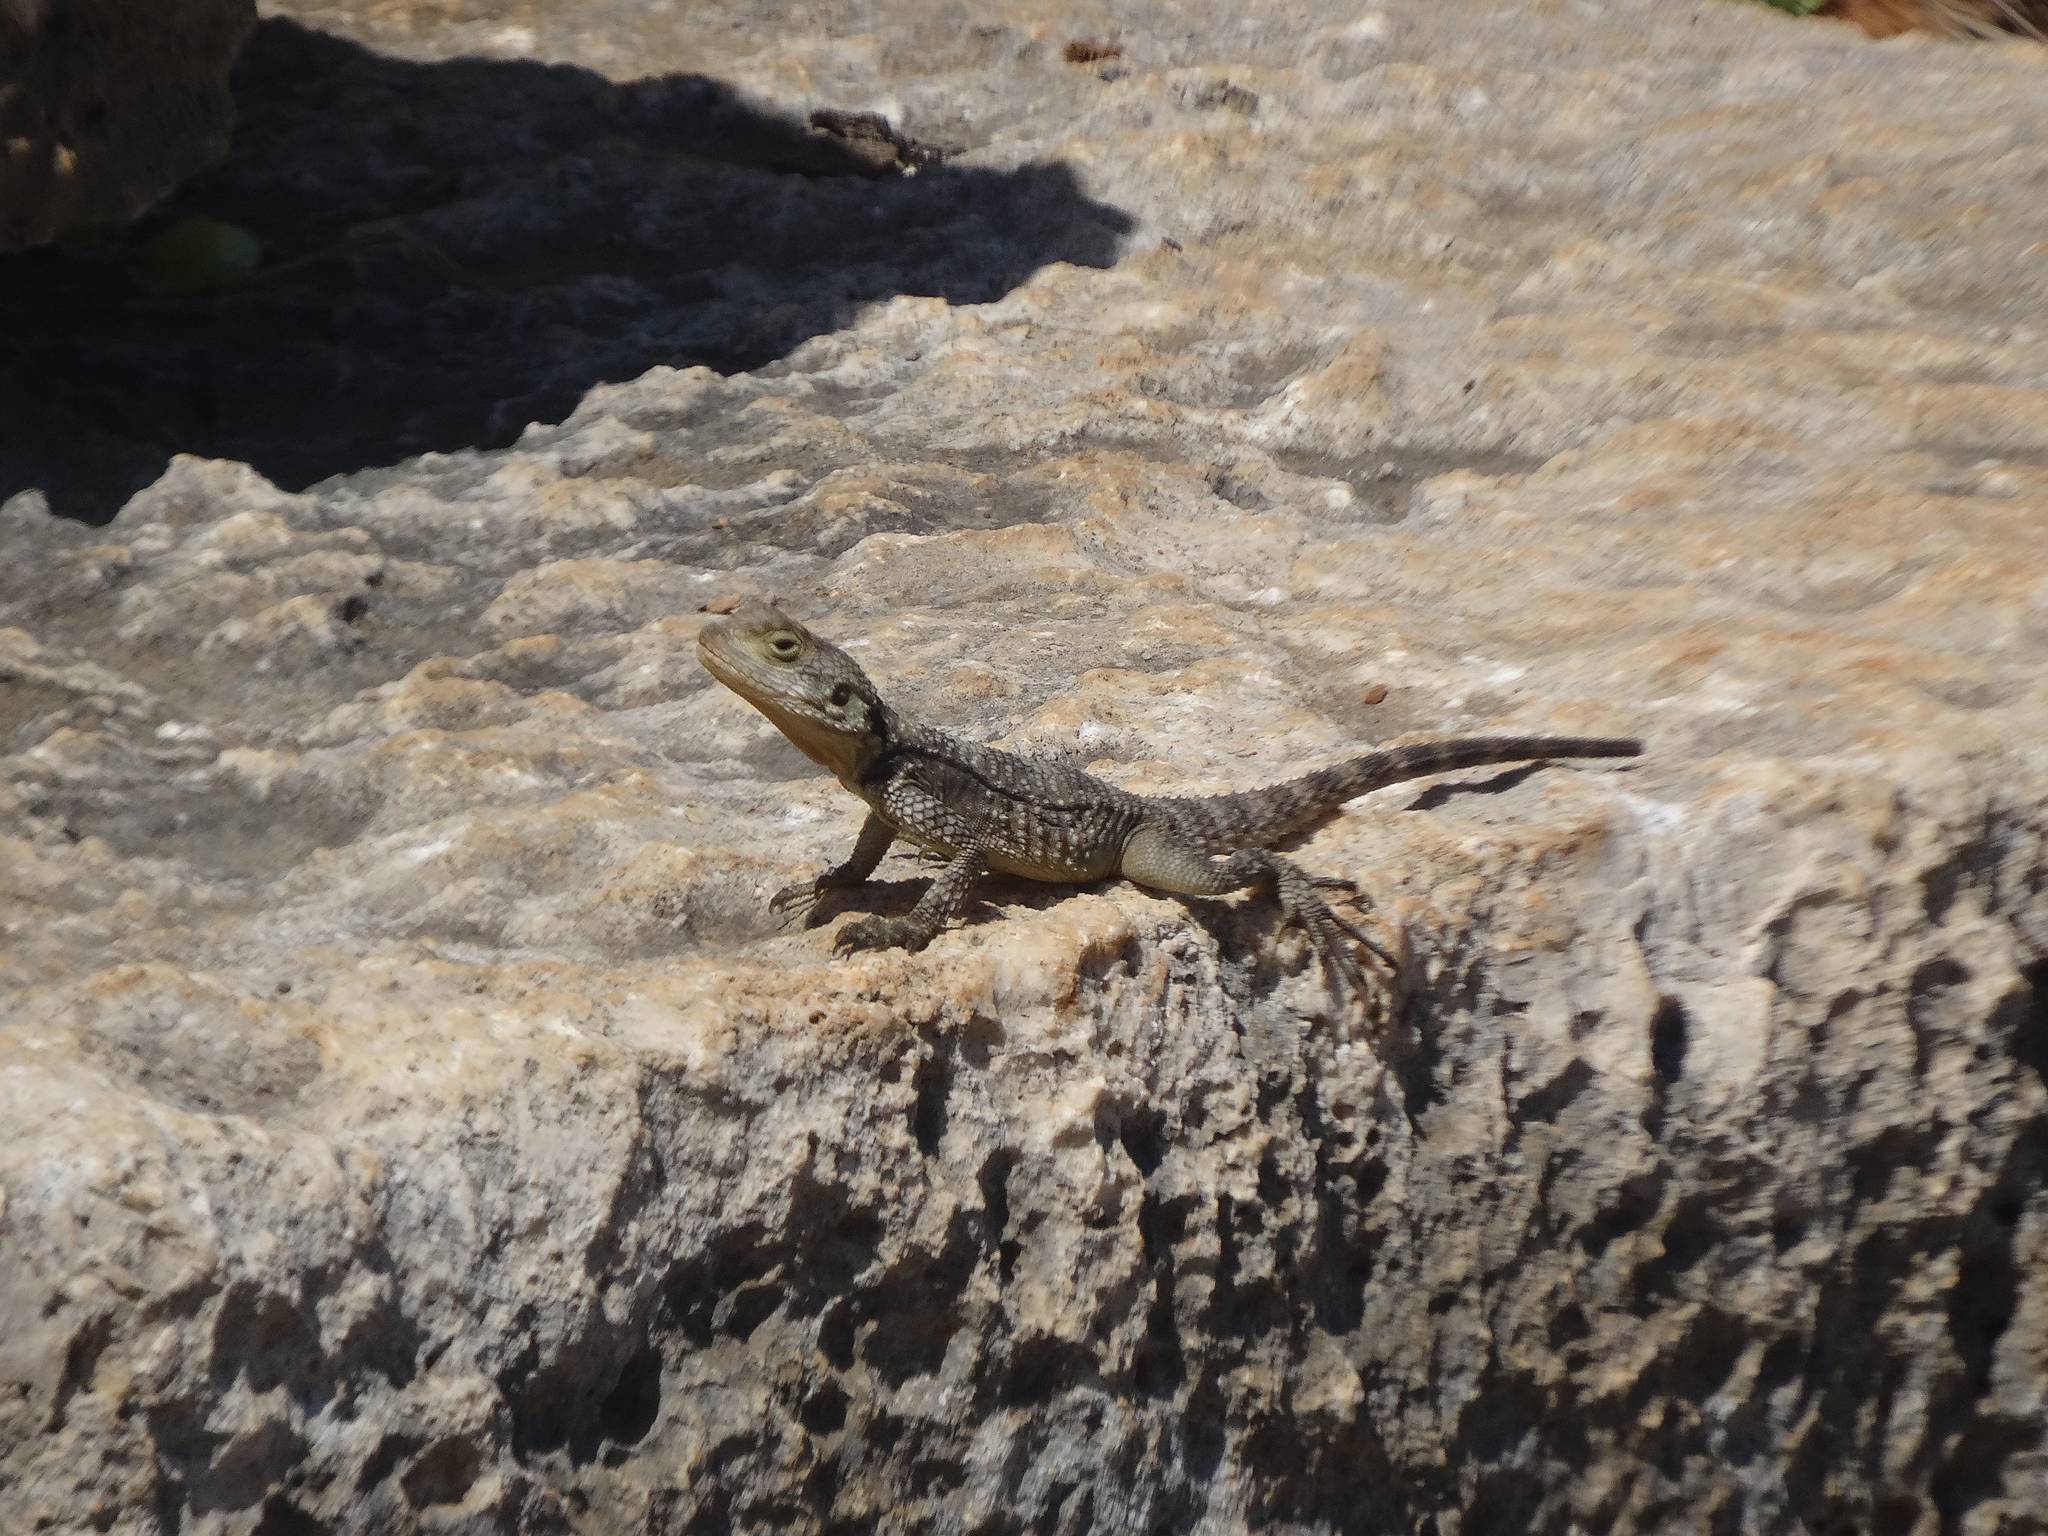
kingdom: Animalia
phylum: Chordata
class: Squamata
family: Agamidae
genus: Stellagama
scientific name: Stellagama stellio
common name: Starred agama
